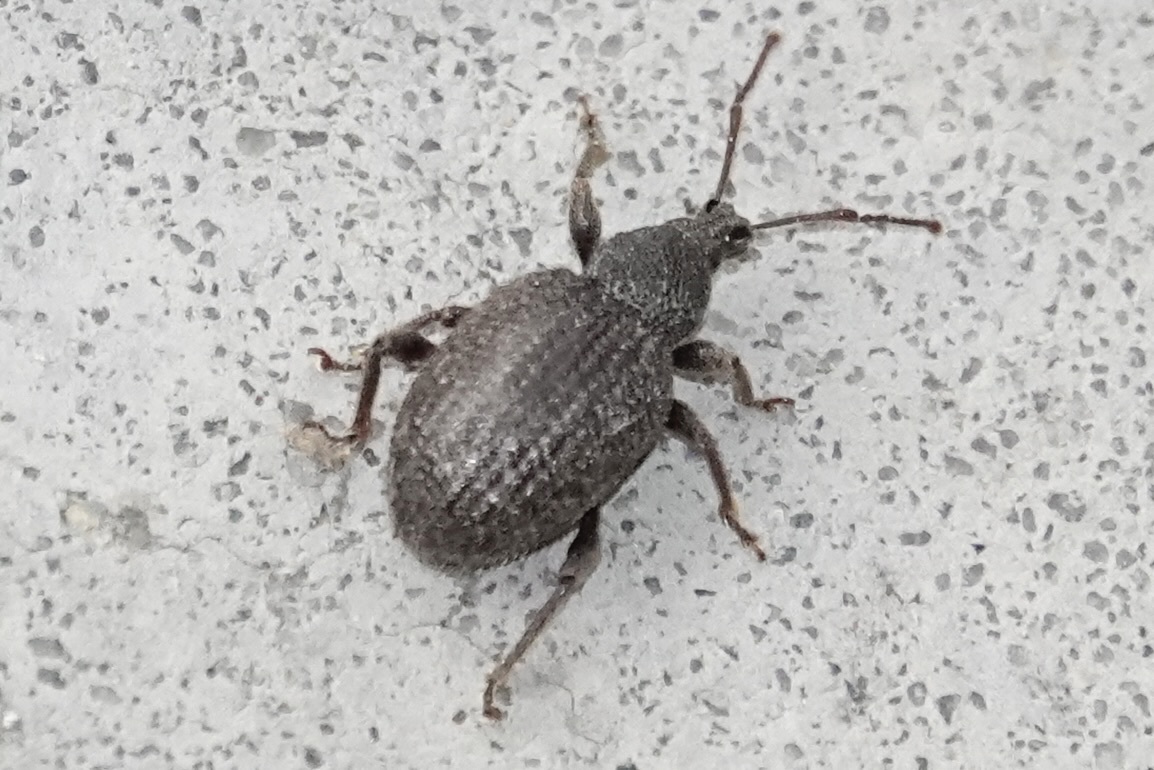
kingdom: Animalia
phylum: Arthropoda
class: Insecta
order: Coleoptera
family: Curculionidae
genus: Otiorhynchus
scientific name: Otiorhynchus rugosostriatus
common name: Weevil
